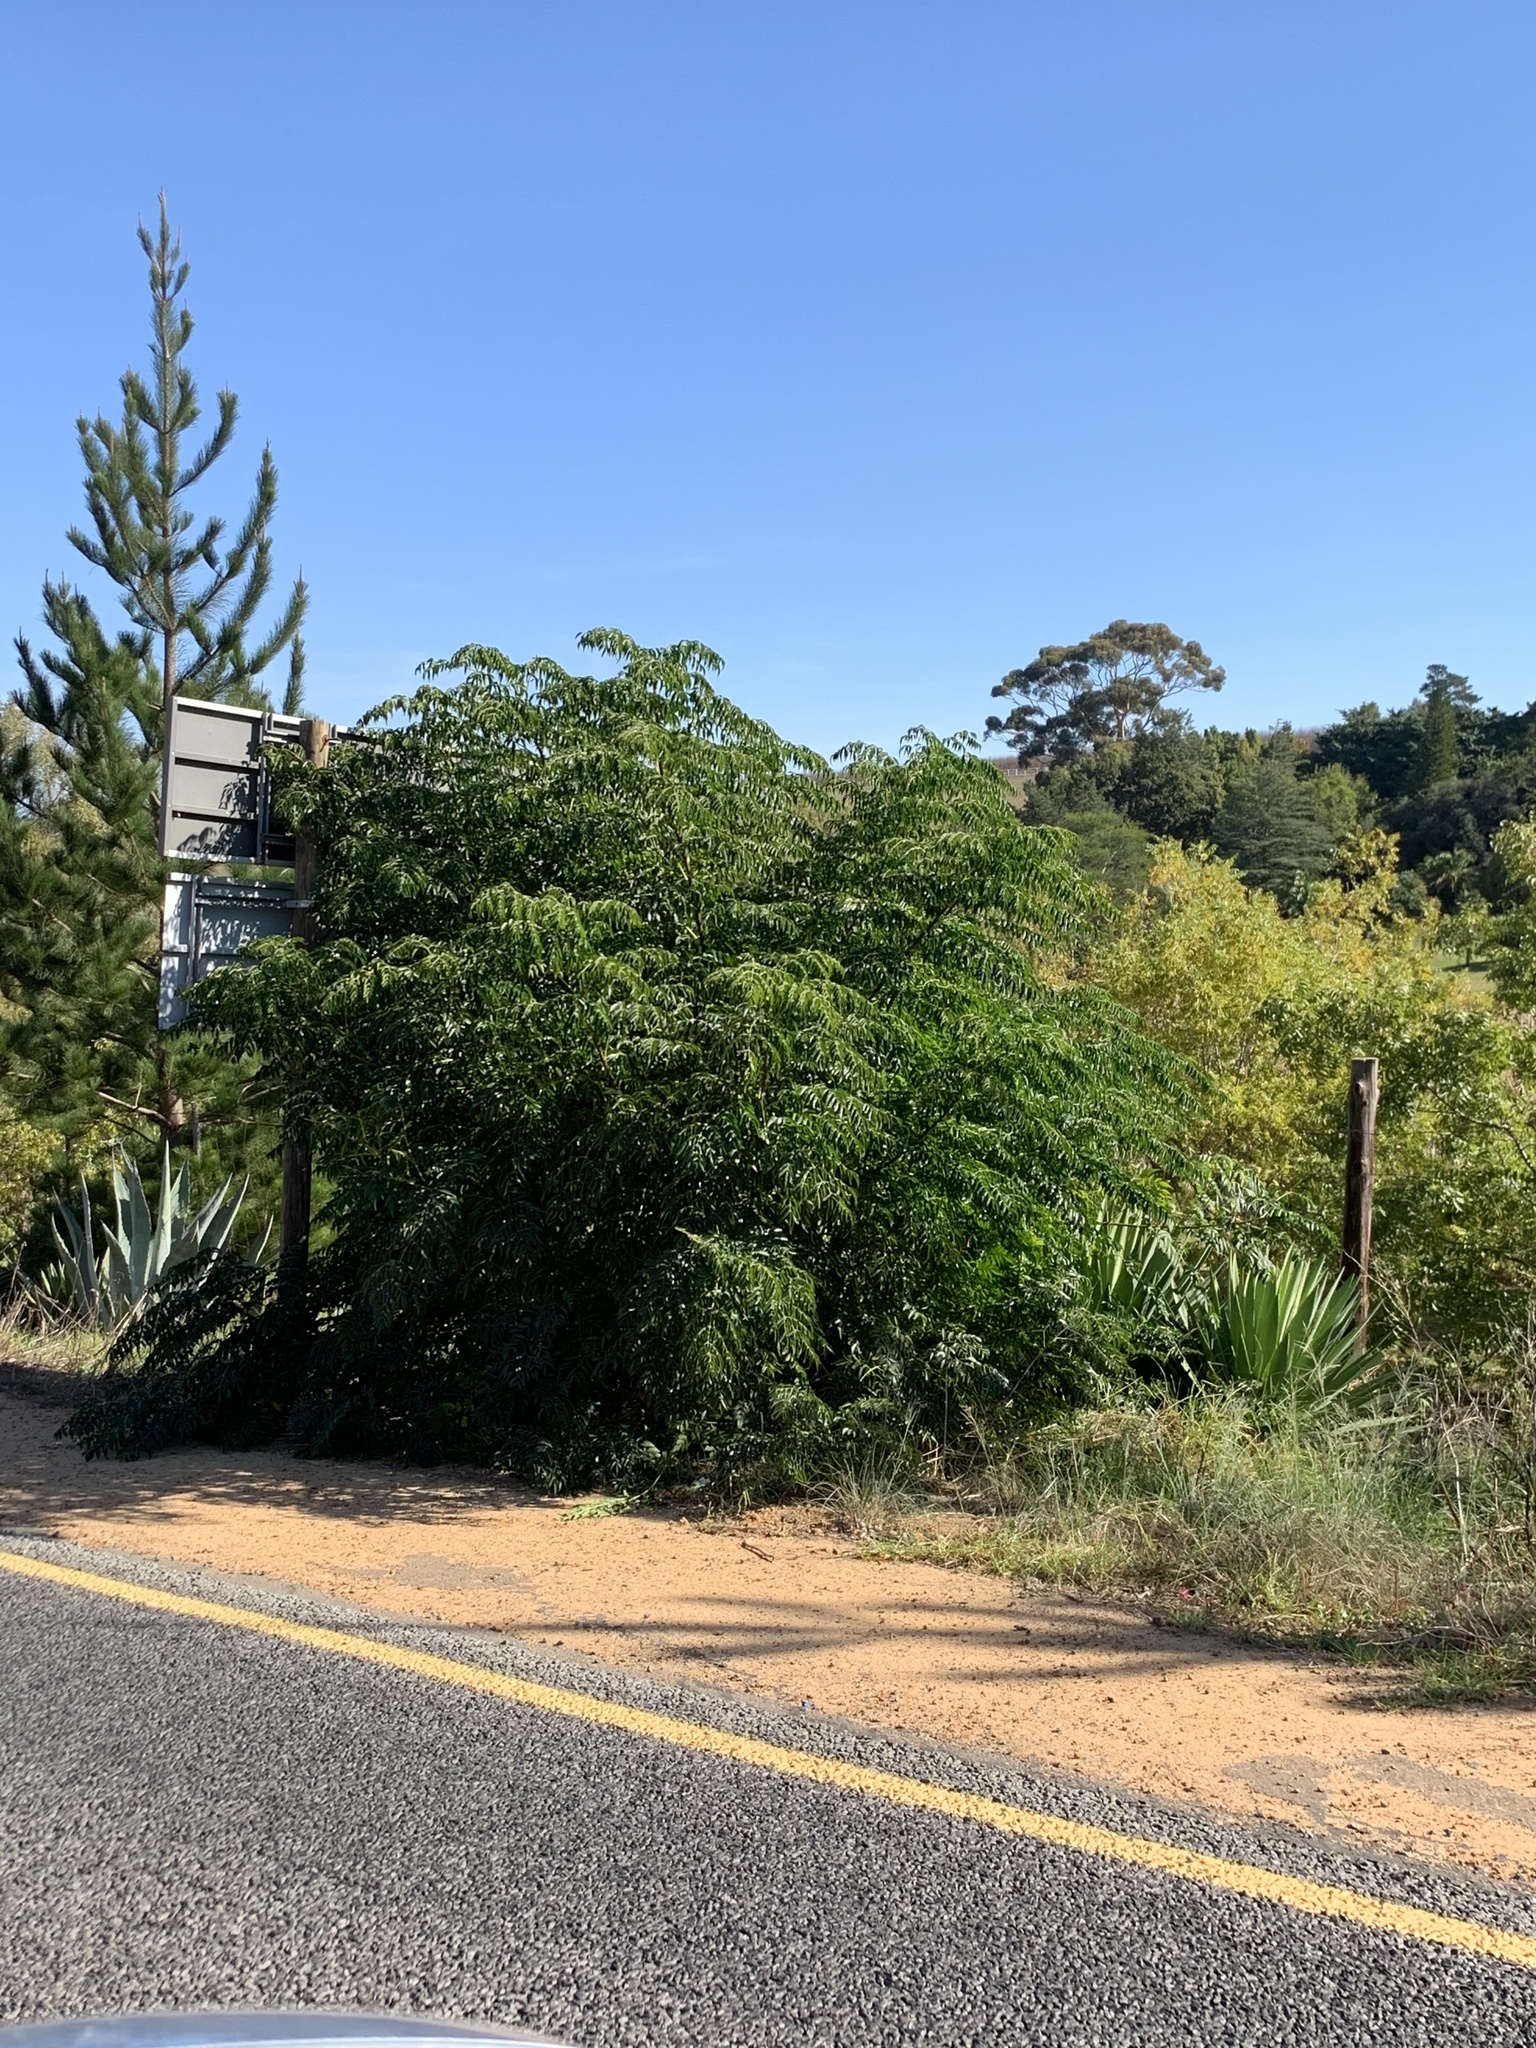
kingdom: Plantae
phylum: Tracheophyta
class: Magnoliopsida
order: Sapindales
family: Meliaceae
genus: Melia
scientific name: Melia azedarach
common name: Chinaberrytree
